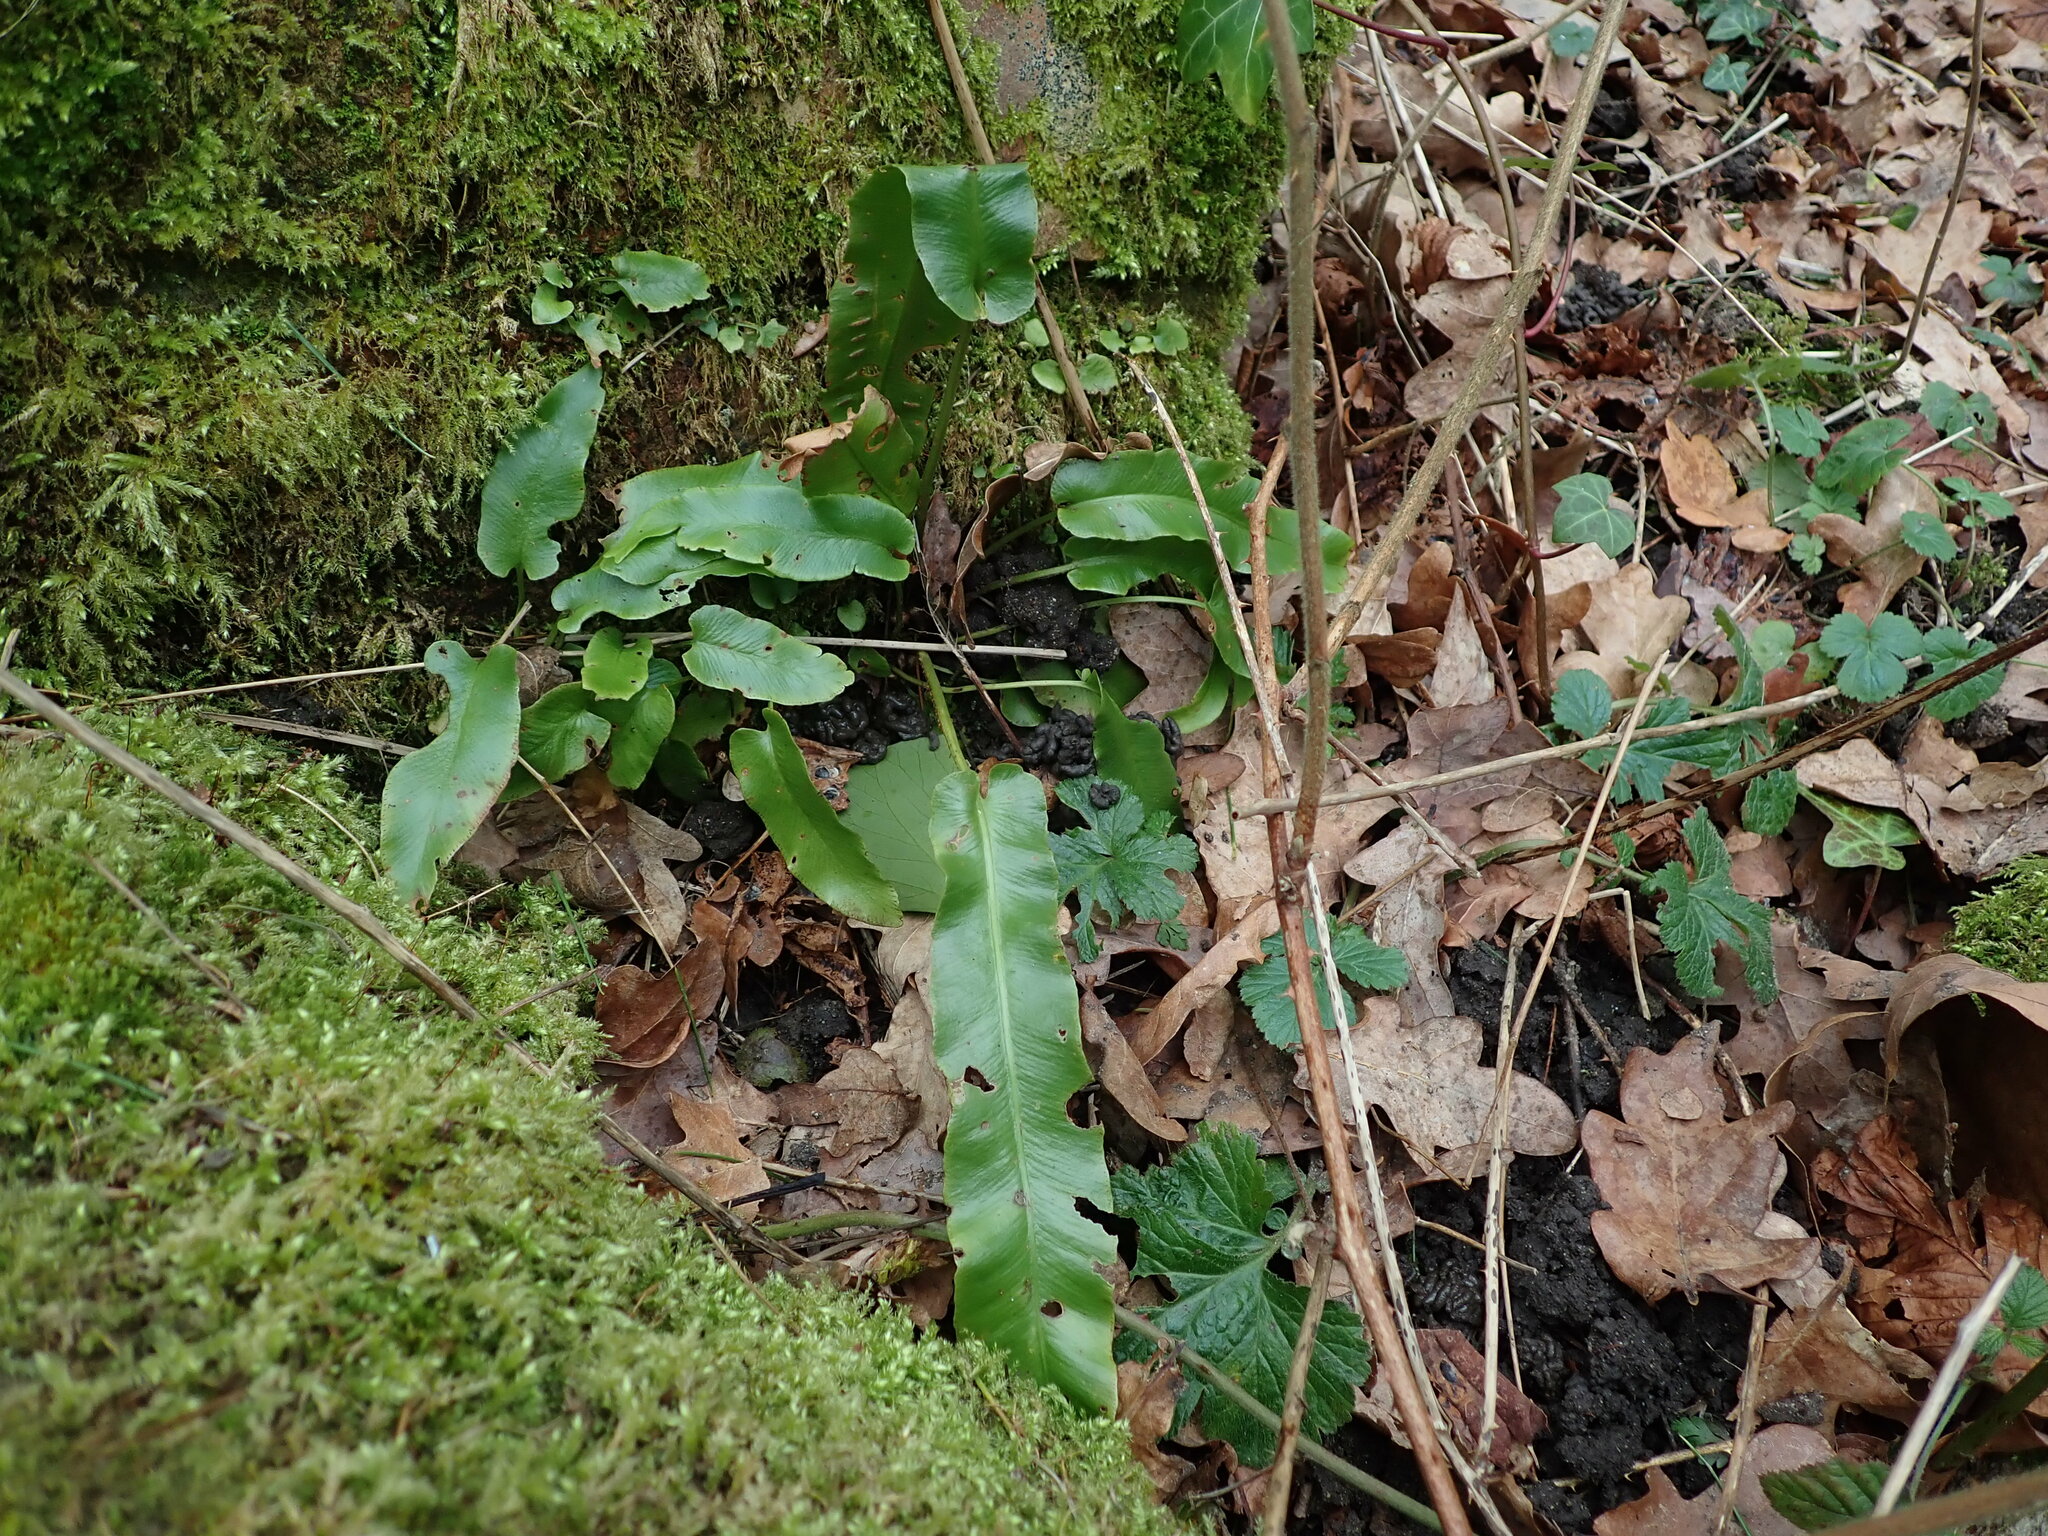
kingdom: Plantae
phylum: Tracheophyta
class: Polypodiopsida
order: Polypodiales
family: Aspleniaceae
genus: Asplenium
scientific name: Asplenium scolopendrium
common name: Hart's-tongue fern
